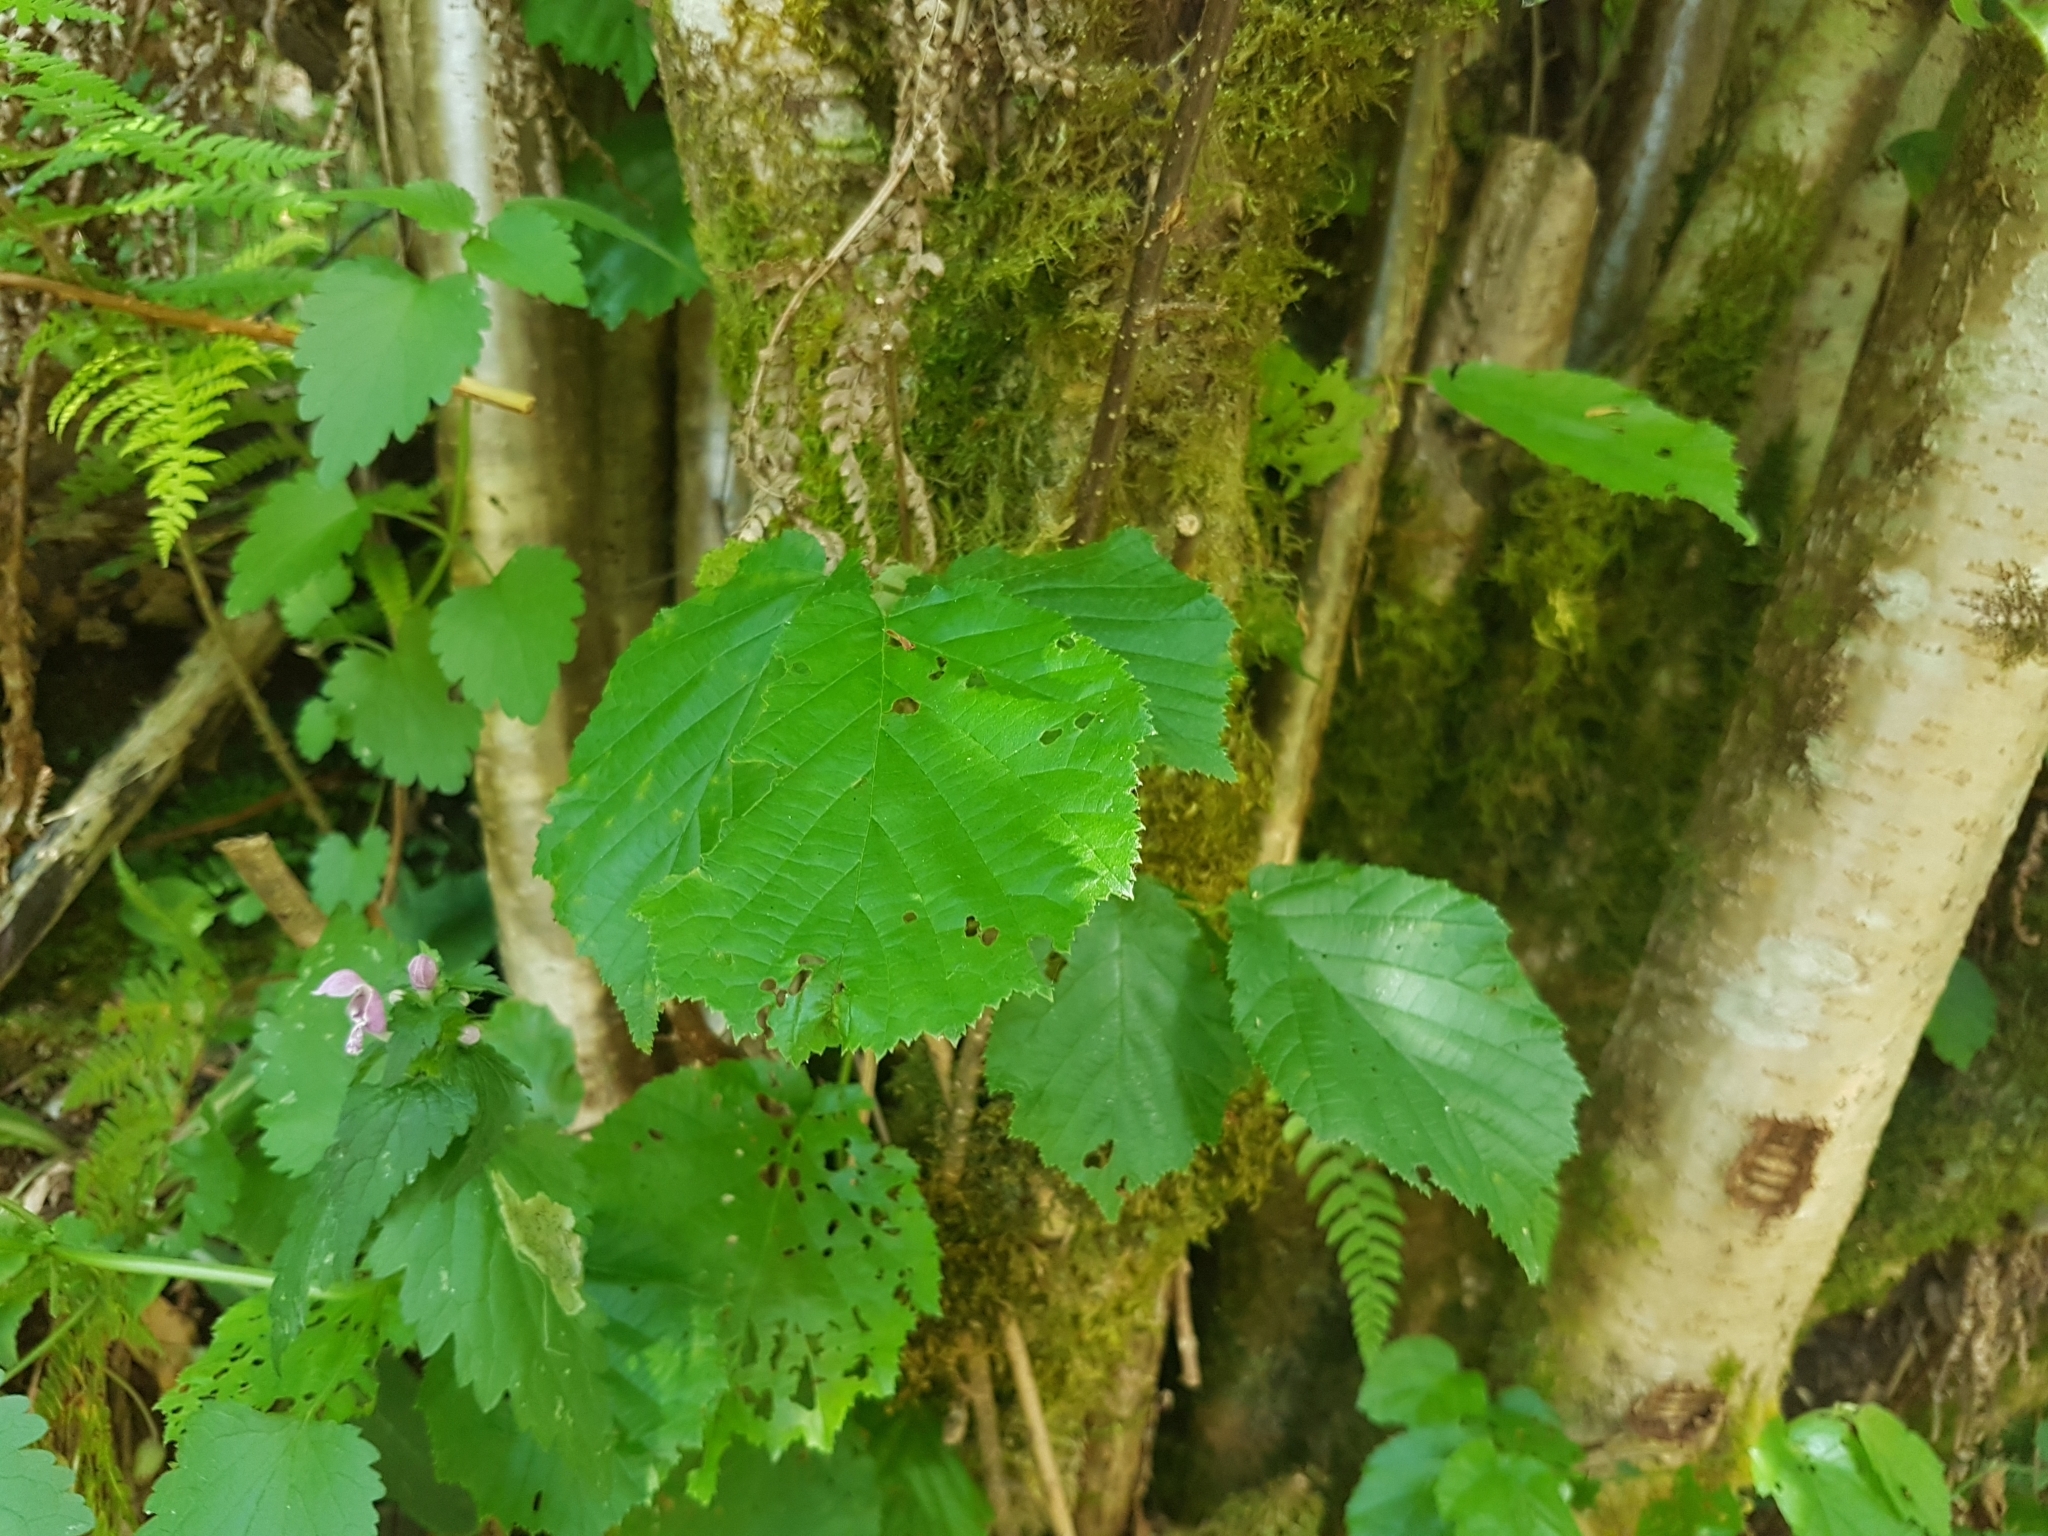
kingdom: Plantae
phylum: Tracheophyta
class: Magnoliopsida
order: Fagales
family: Betulaceae
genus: Corylus
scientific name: Corylus avellana
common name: European hazel
